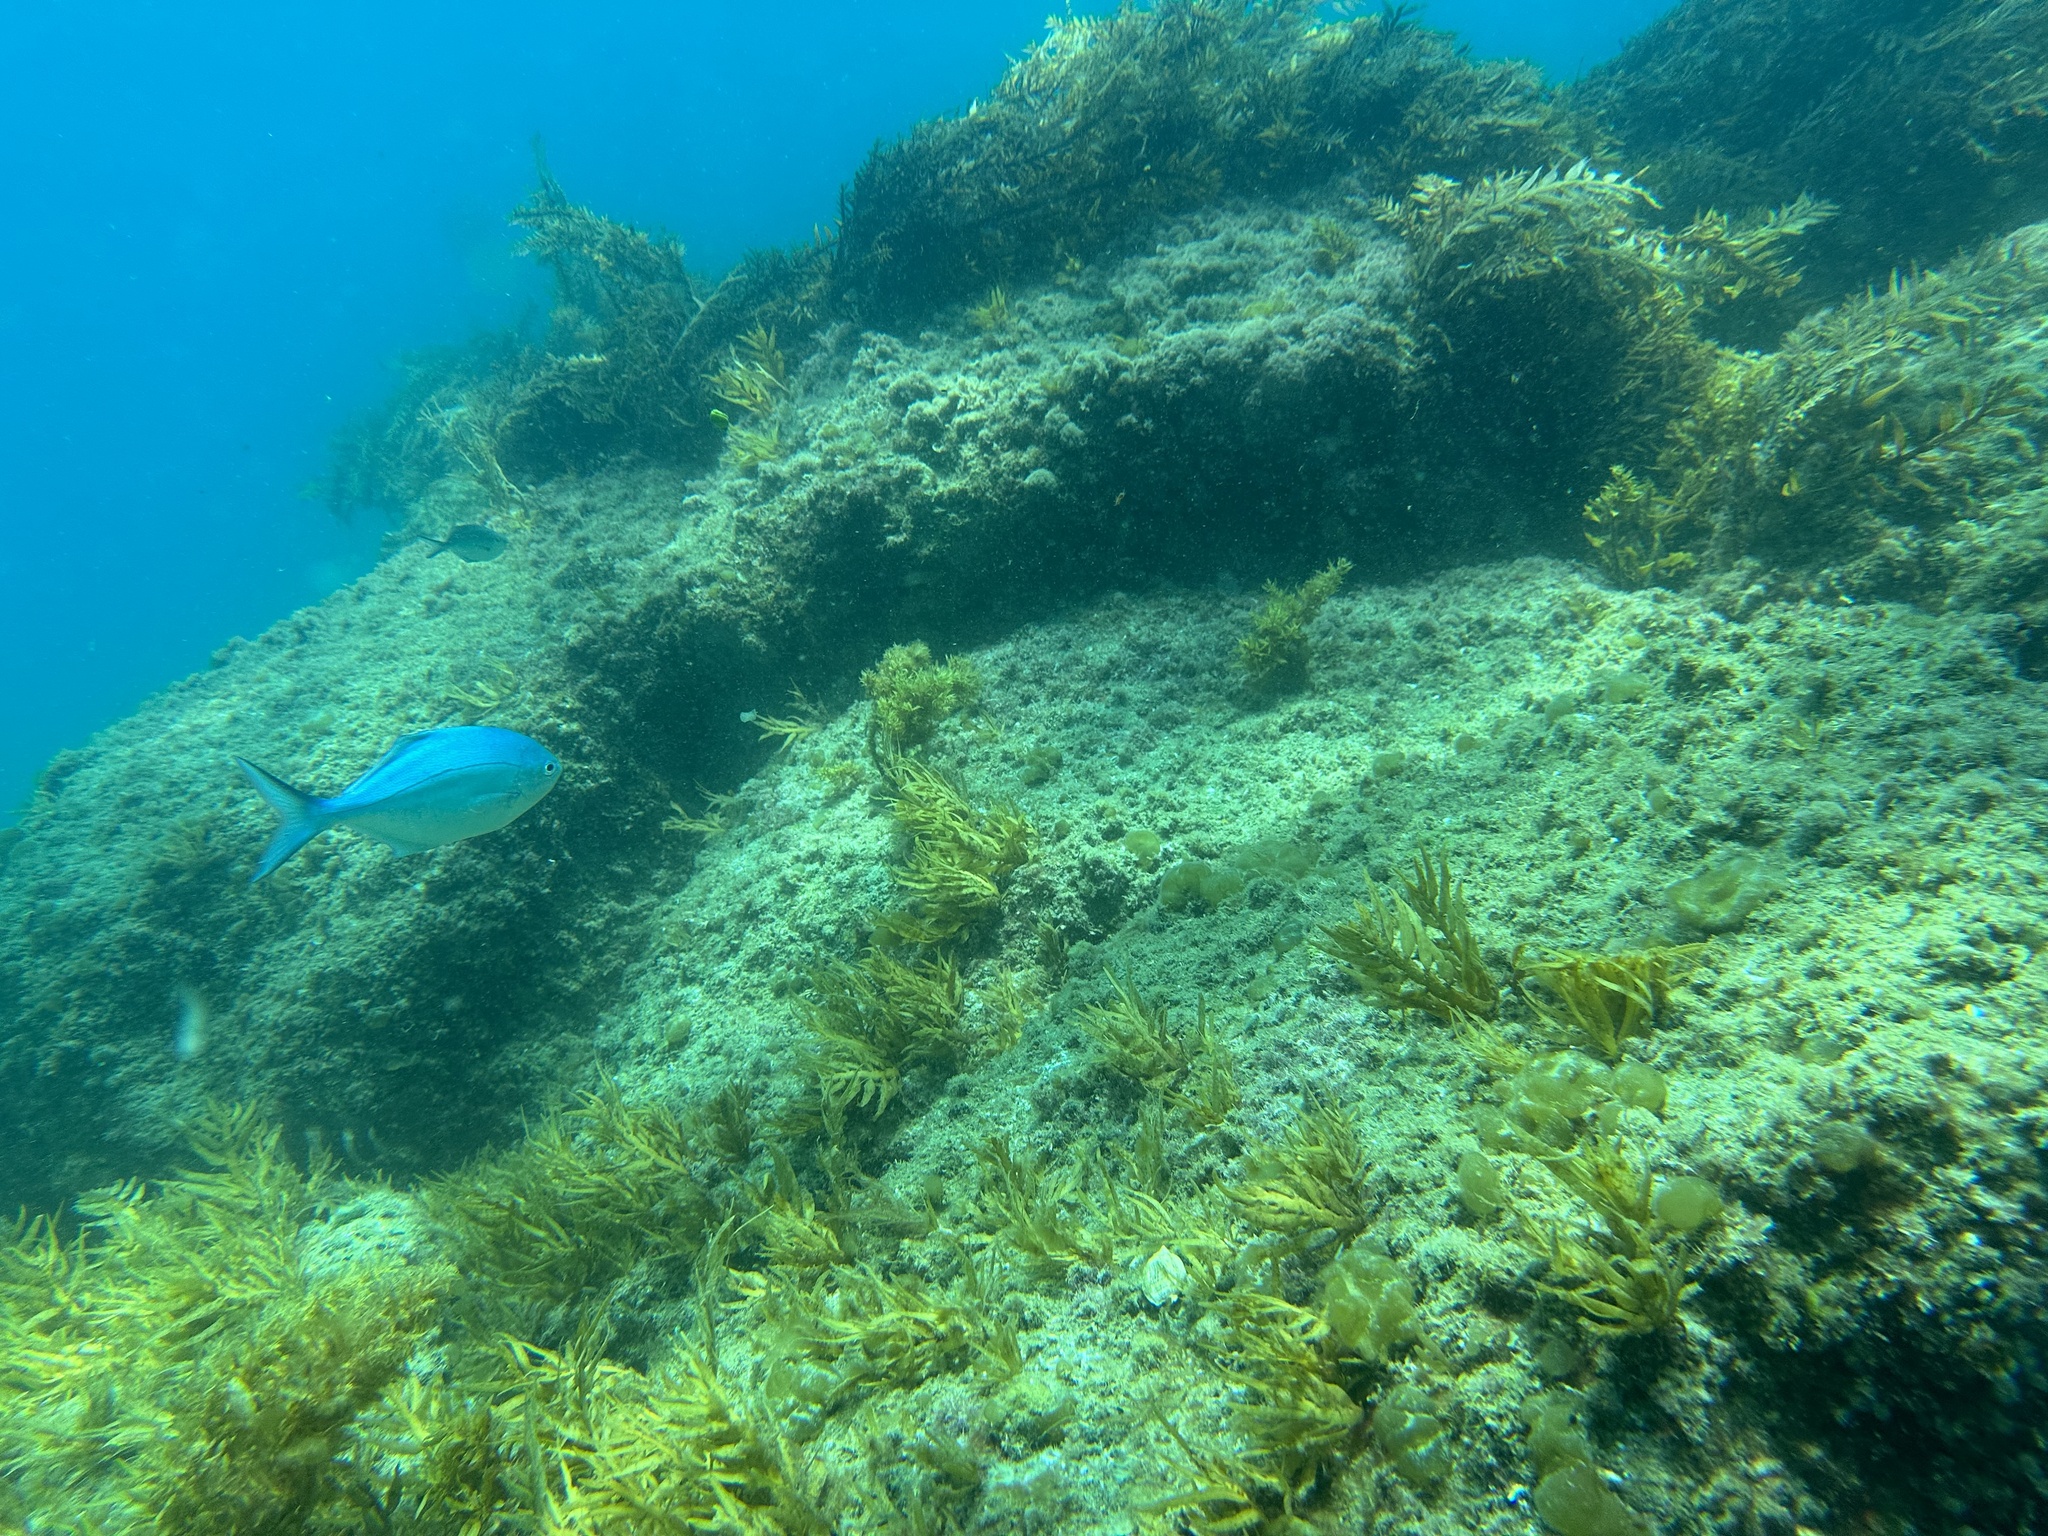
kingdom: Animalia
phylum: Chordata
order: Perciformes
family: Kyphosidae
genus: Scorpis
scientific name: Scorpis violacea
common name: Blue maomao
